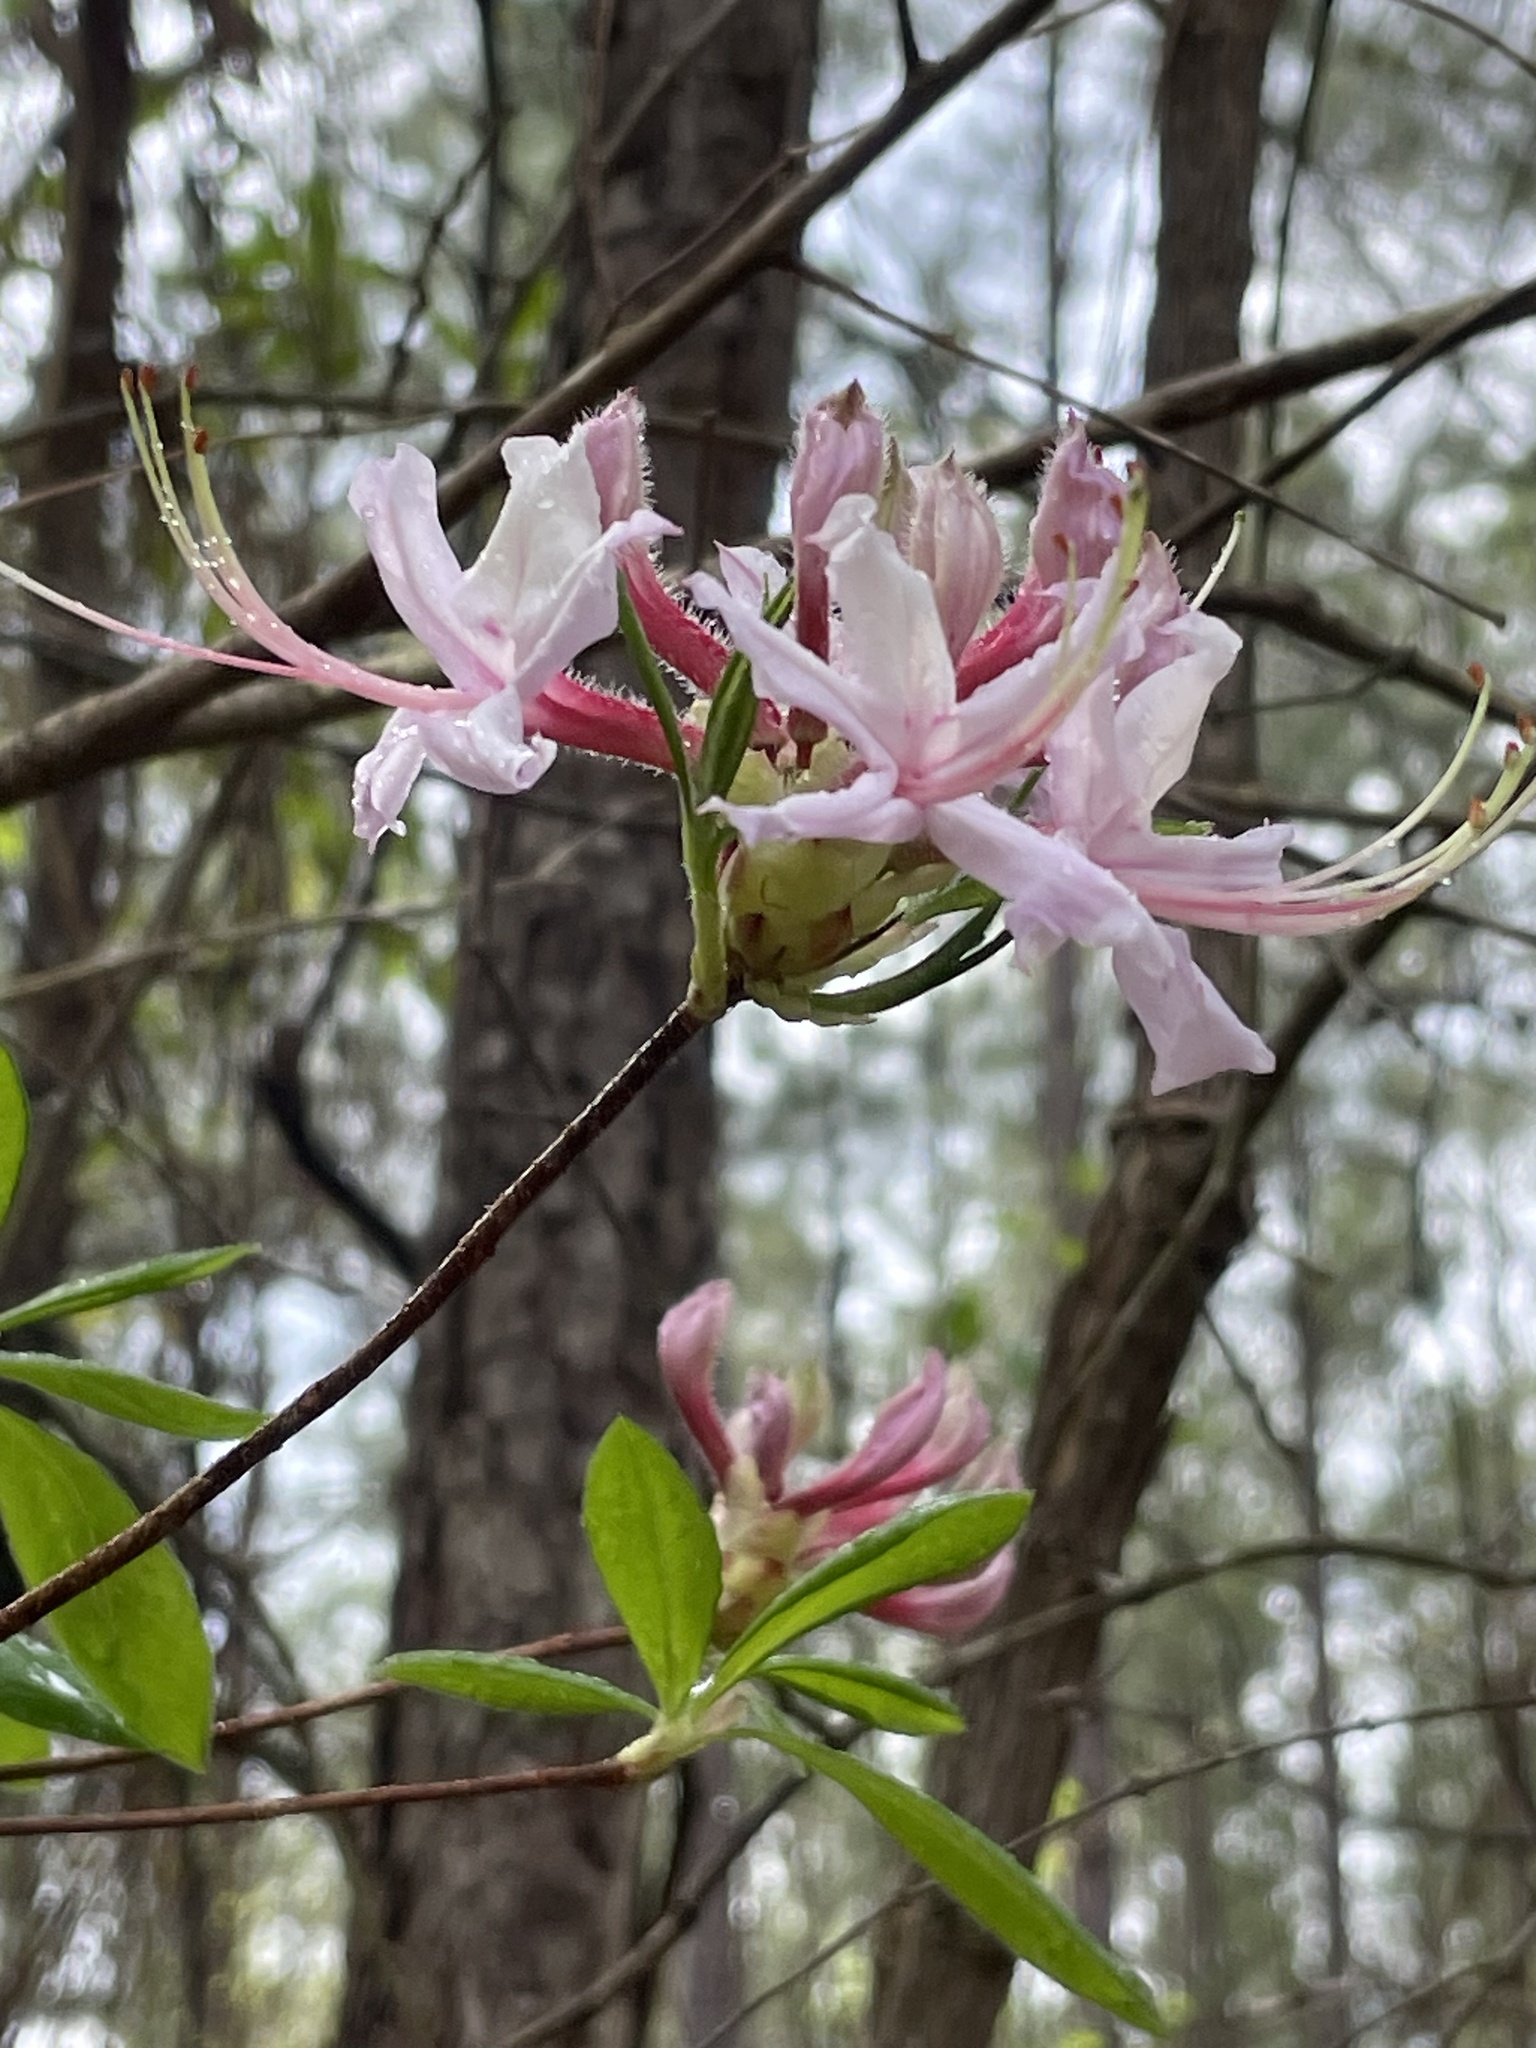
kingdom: Plantae
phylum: Tracheophyta
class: Magnoliopsida
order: Ericales
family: Ericaceae
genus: Rhododendron
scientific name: Rhododendron periclymenoides
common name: Election-pink
